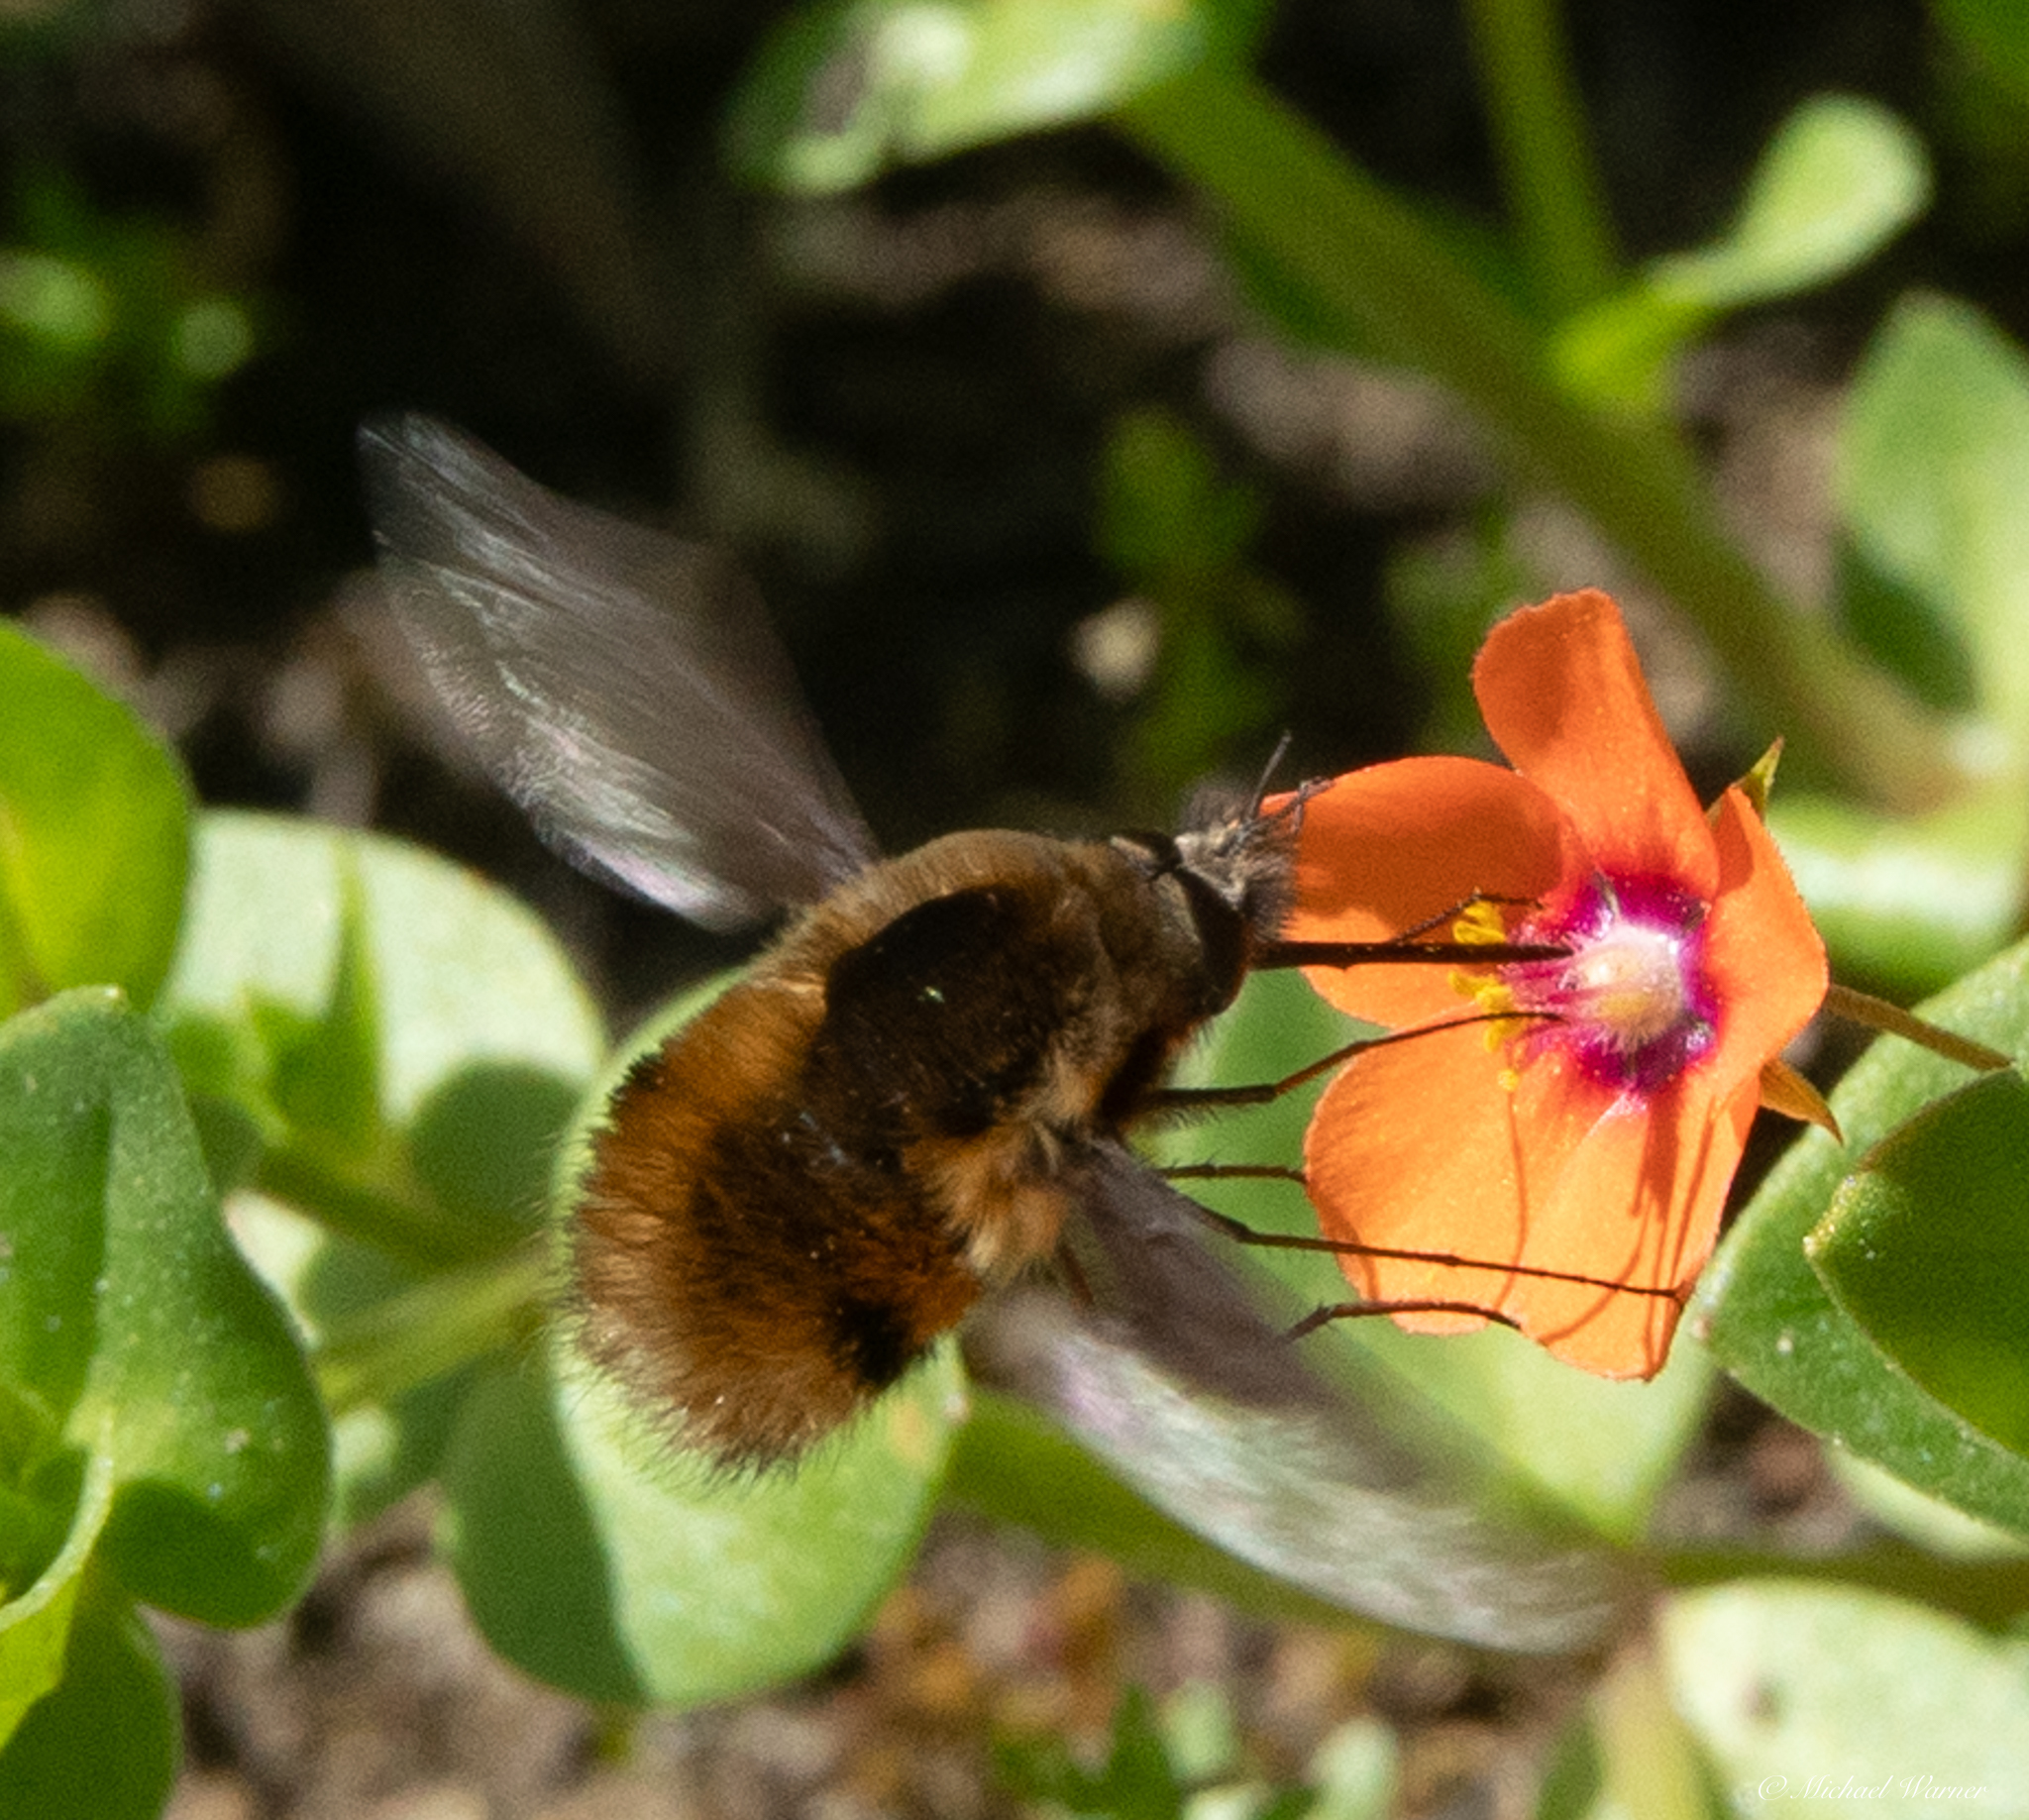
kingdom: Animalia
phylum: Arthropoda
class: Insecta
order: Diptera
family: Bombyliidae
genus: Bombylius
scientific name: Bombylius major
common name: Bee fly
